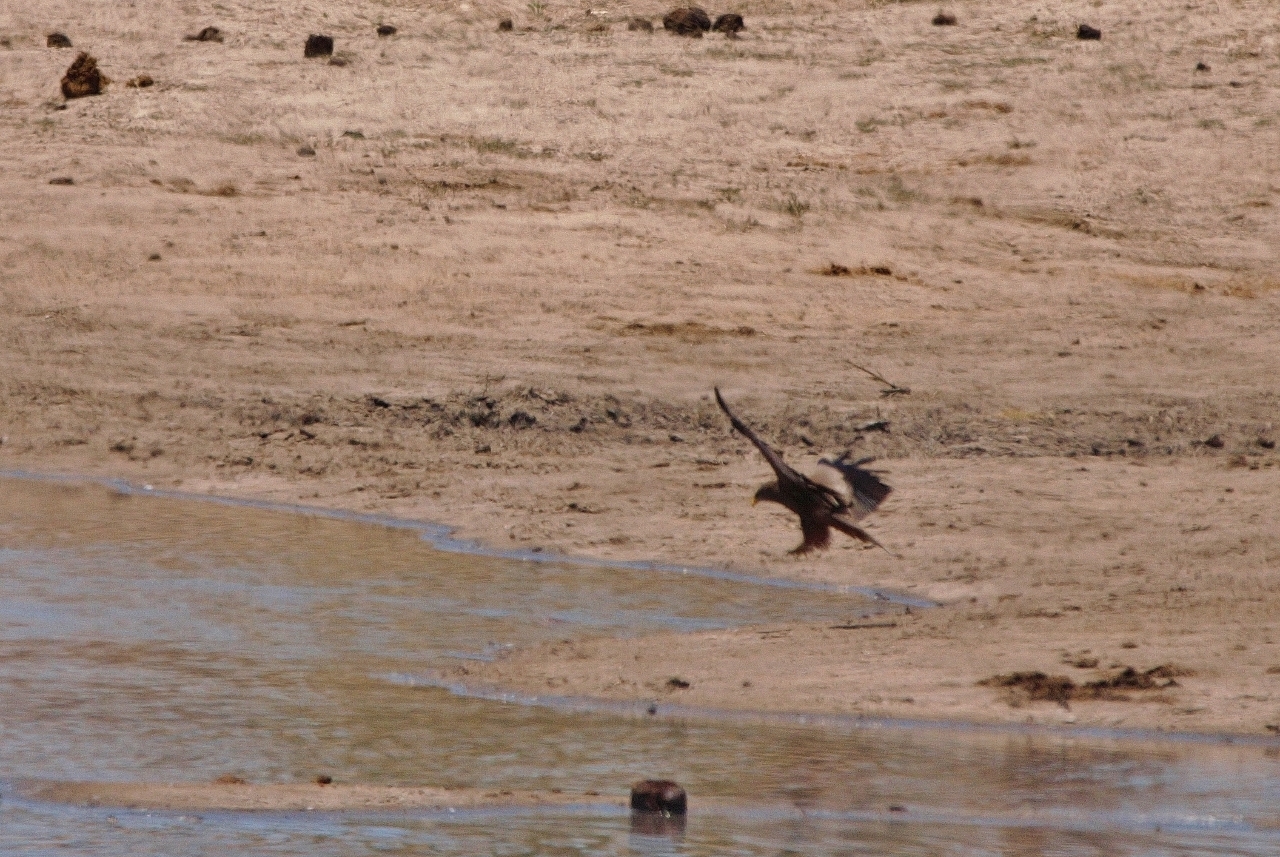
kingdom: Animalia
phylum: Chordata
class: Aves
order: Accipitriformes
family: Accipitridae
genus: Milvus
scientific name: Milvus migrans
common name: Black kite
